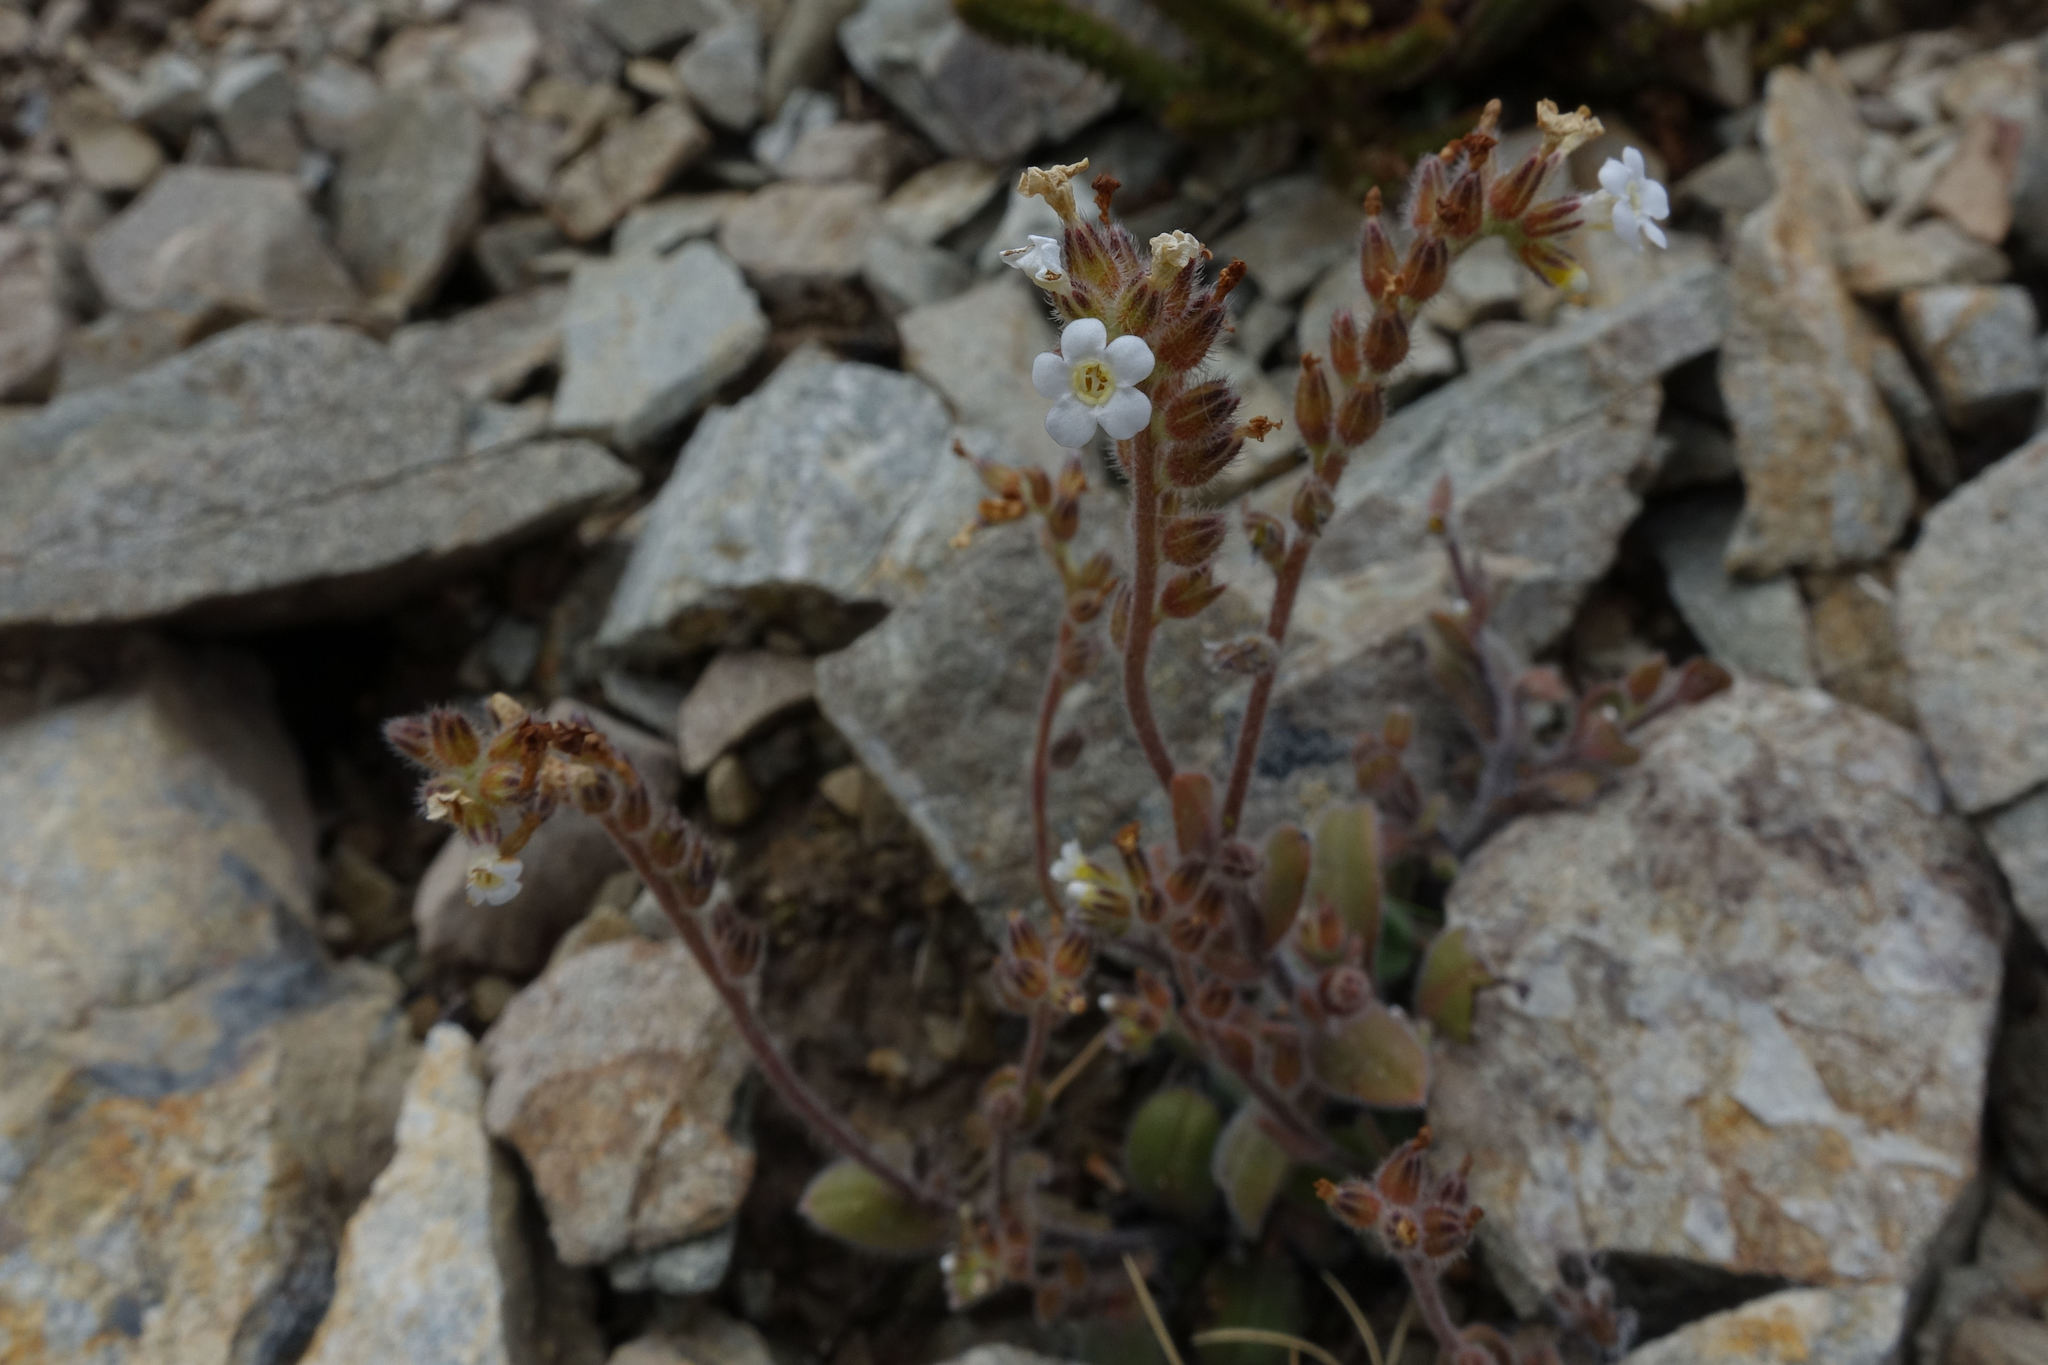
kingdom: Plantae
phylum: Tracheophyta
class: Magnoliopsida
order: Boraginales
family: Boraginaceae
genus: Myosotis
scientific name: Myosotis australis
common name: Australian forget-me-not
